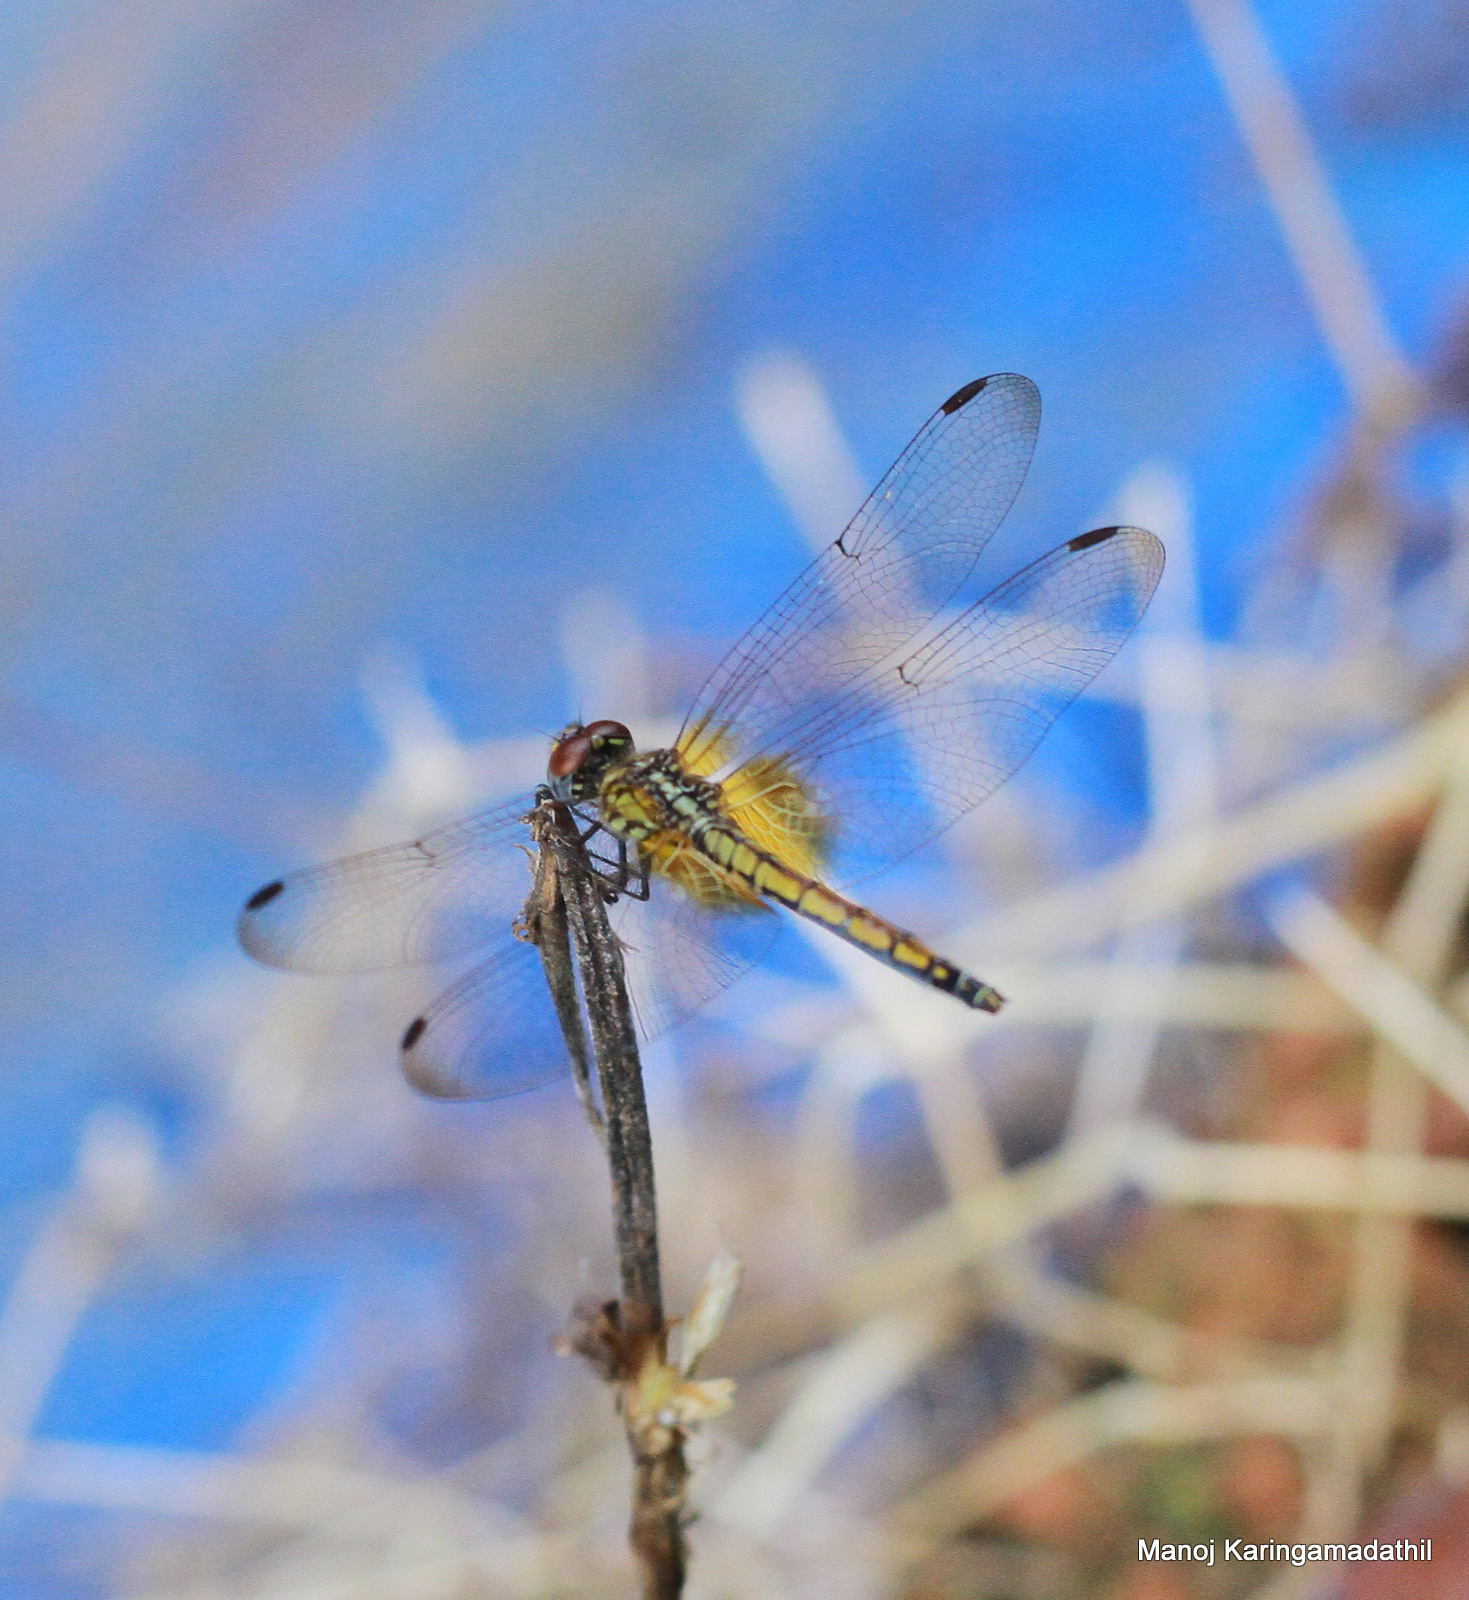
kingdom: Animalia
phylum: Arthropoda
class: Insecta
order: Odonata
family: Libellulidae
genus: Trithemis
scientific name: Trithemis aurora
